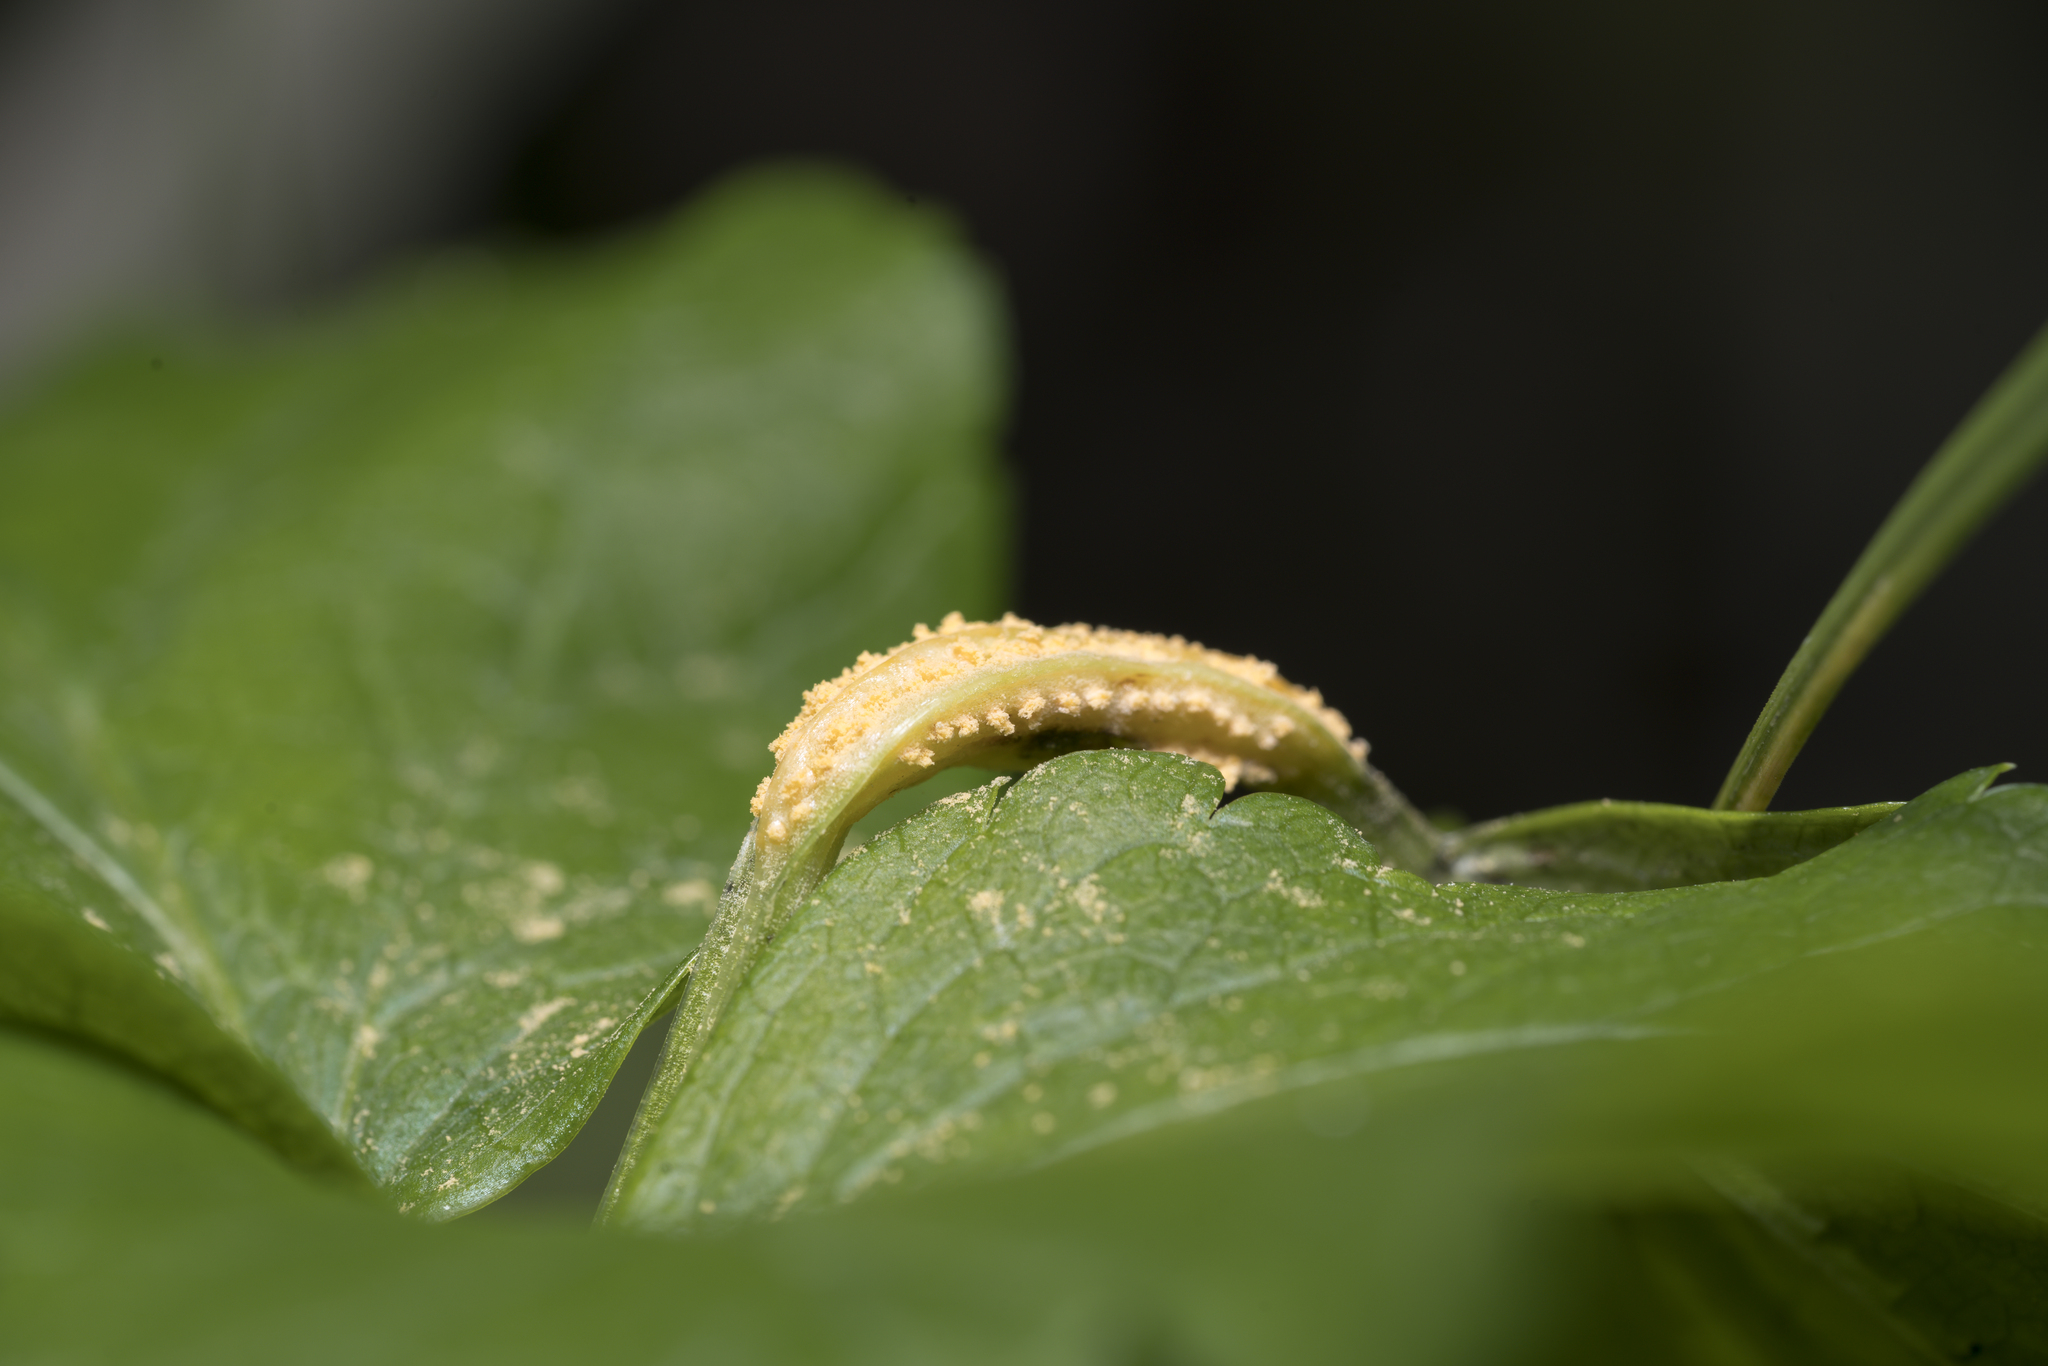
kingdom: Fungi
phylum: Basidiomycota
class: Pucciniomycetes
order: Pucciniales
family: Pucciniaceae
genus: Puccinia
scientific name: Puccinia smyrnii
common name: Alexanders rust
